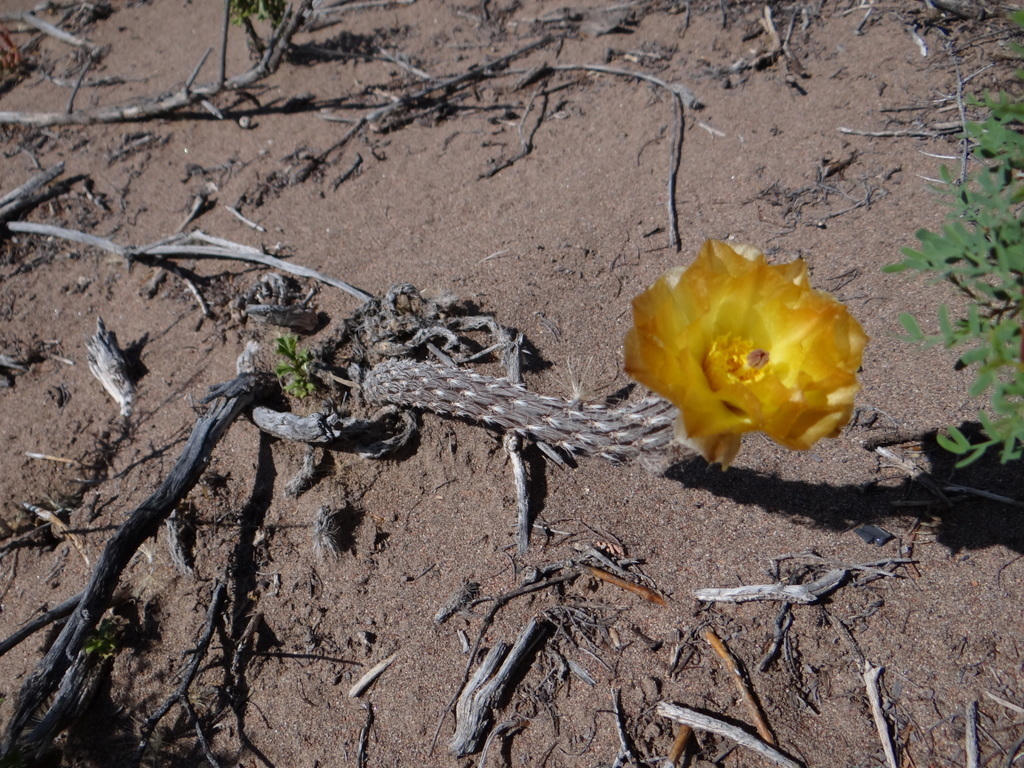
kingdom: Plantae
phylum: Tracheophyta
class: Magnoliopsida
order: Caryophyllales
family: Cactaceae
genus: Pterocactus
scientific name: Pterocactus tuberosus
